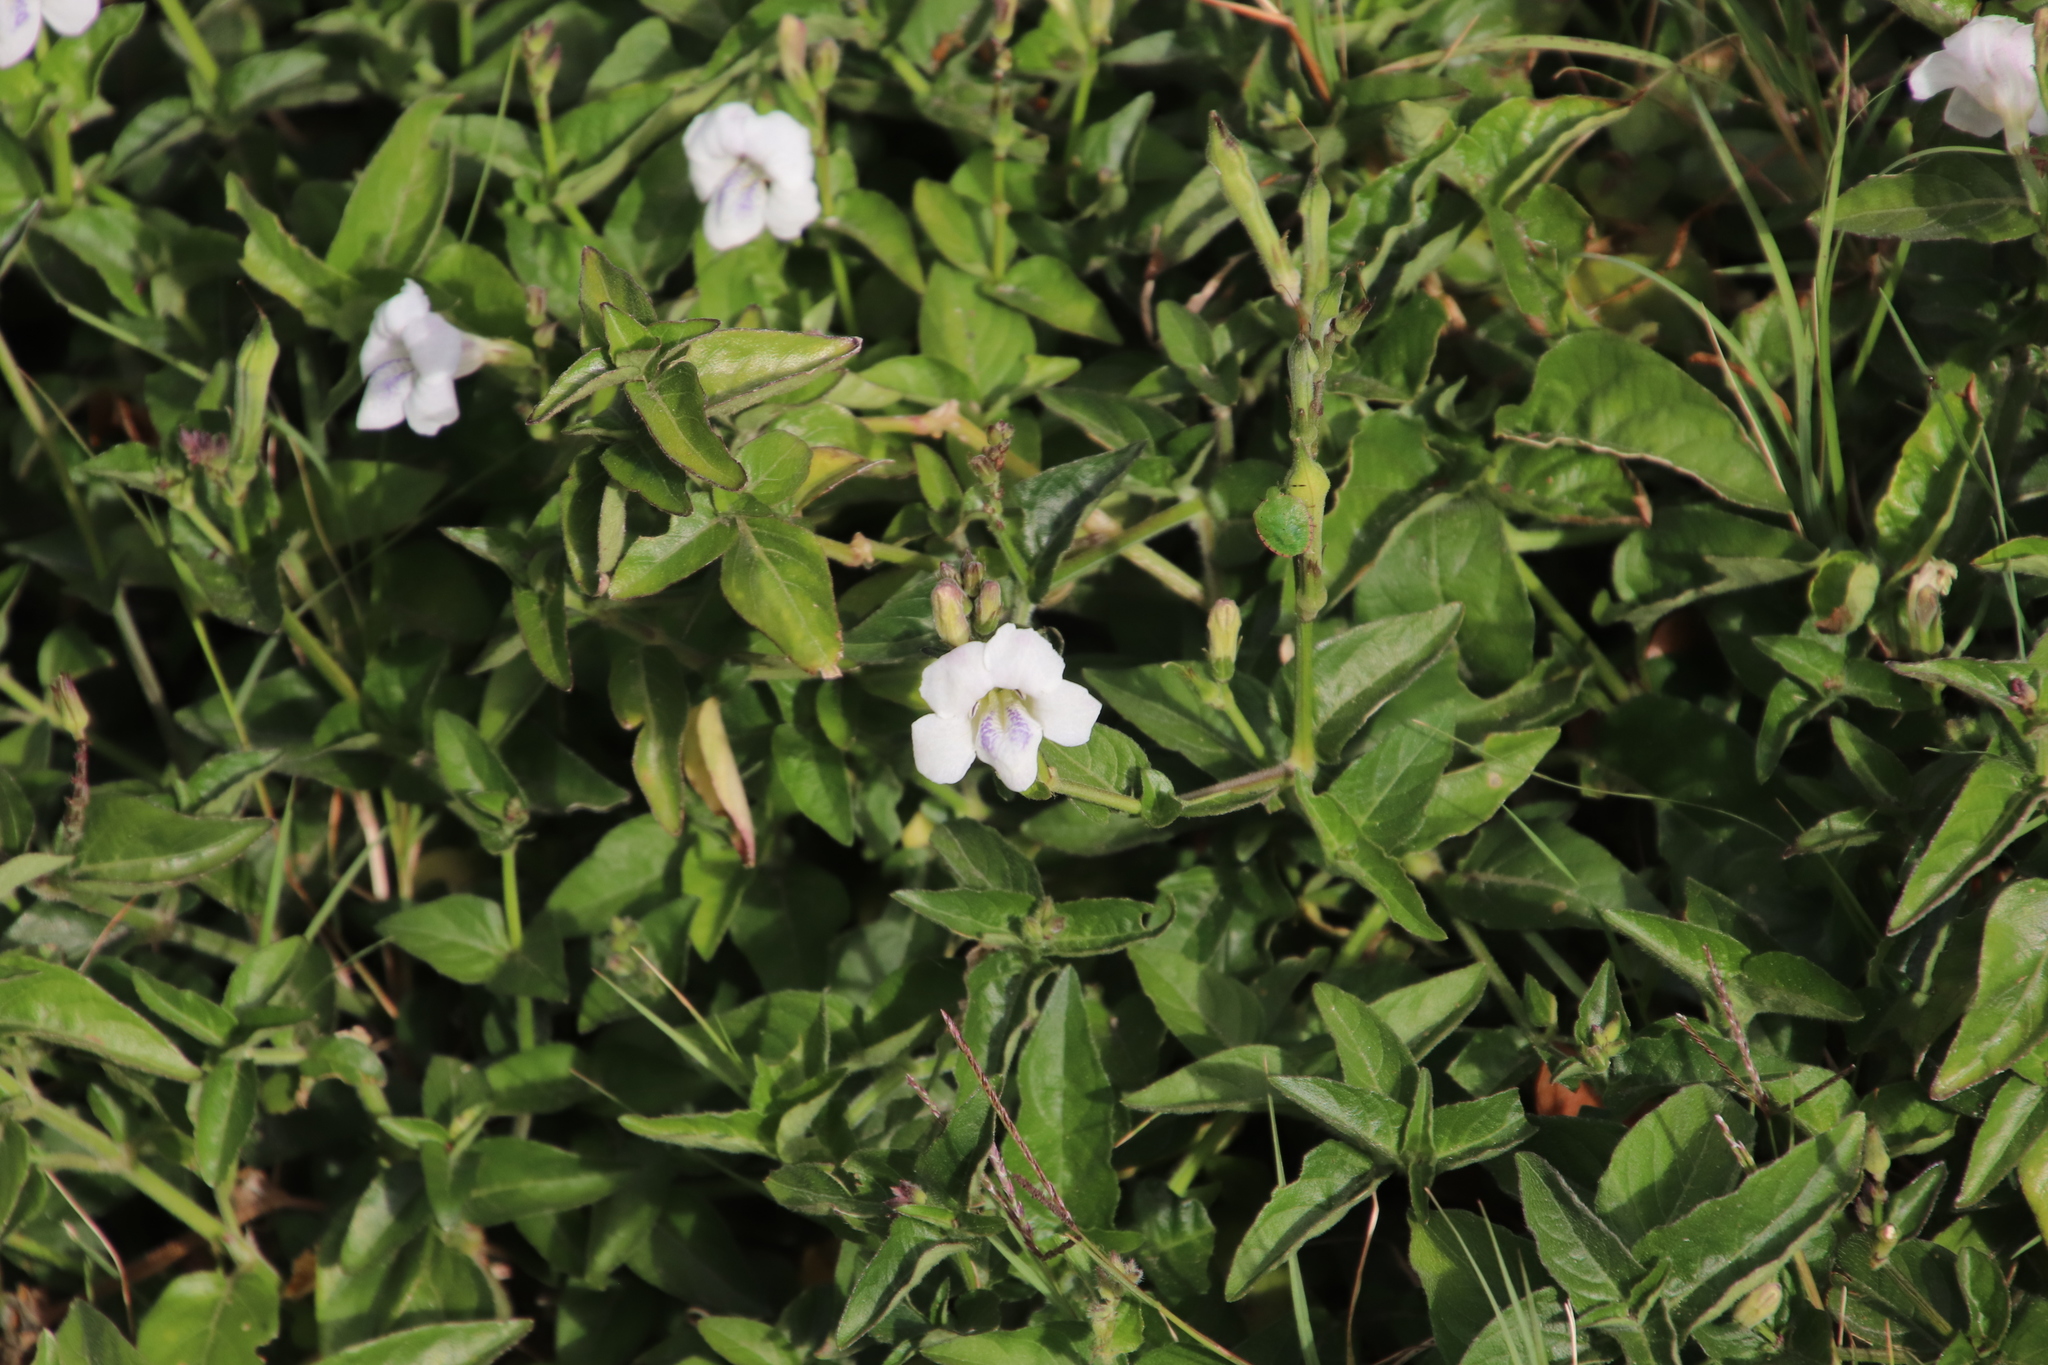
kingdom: Plantae
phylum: Tracheophyta
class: Magnoliopsida
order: Lamiales
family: Acanthaceae
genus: Asystasia
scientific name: Asystasia intrusa
